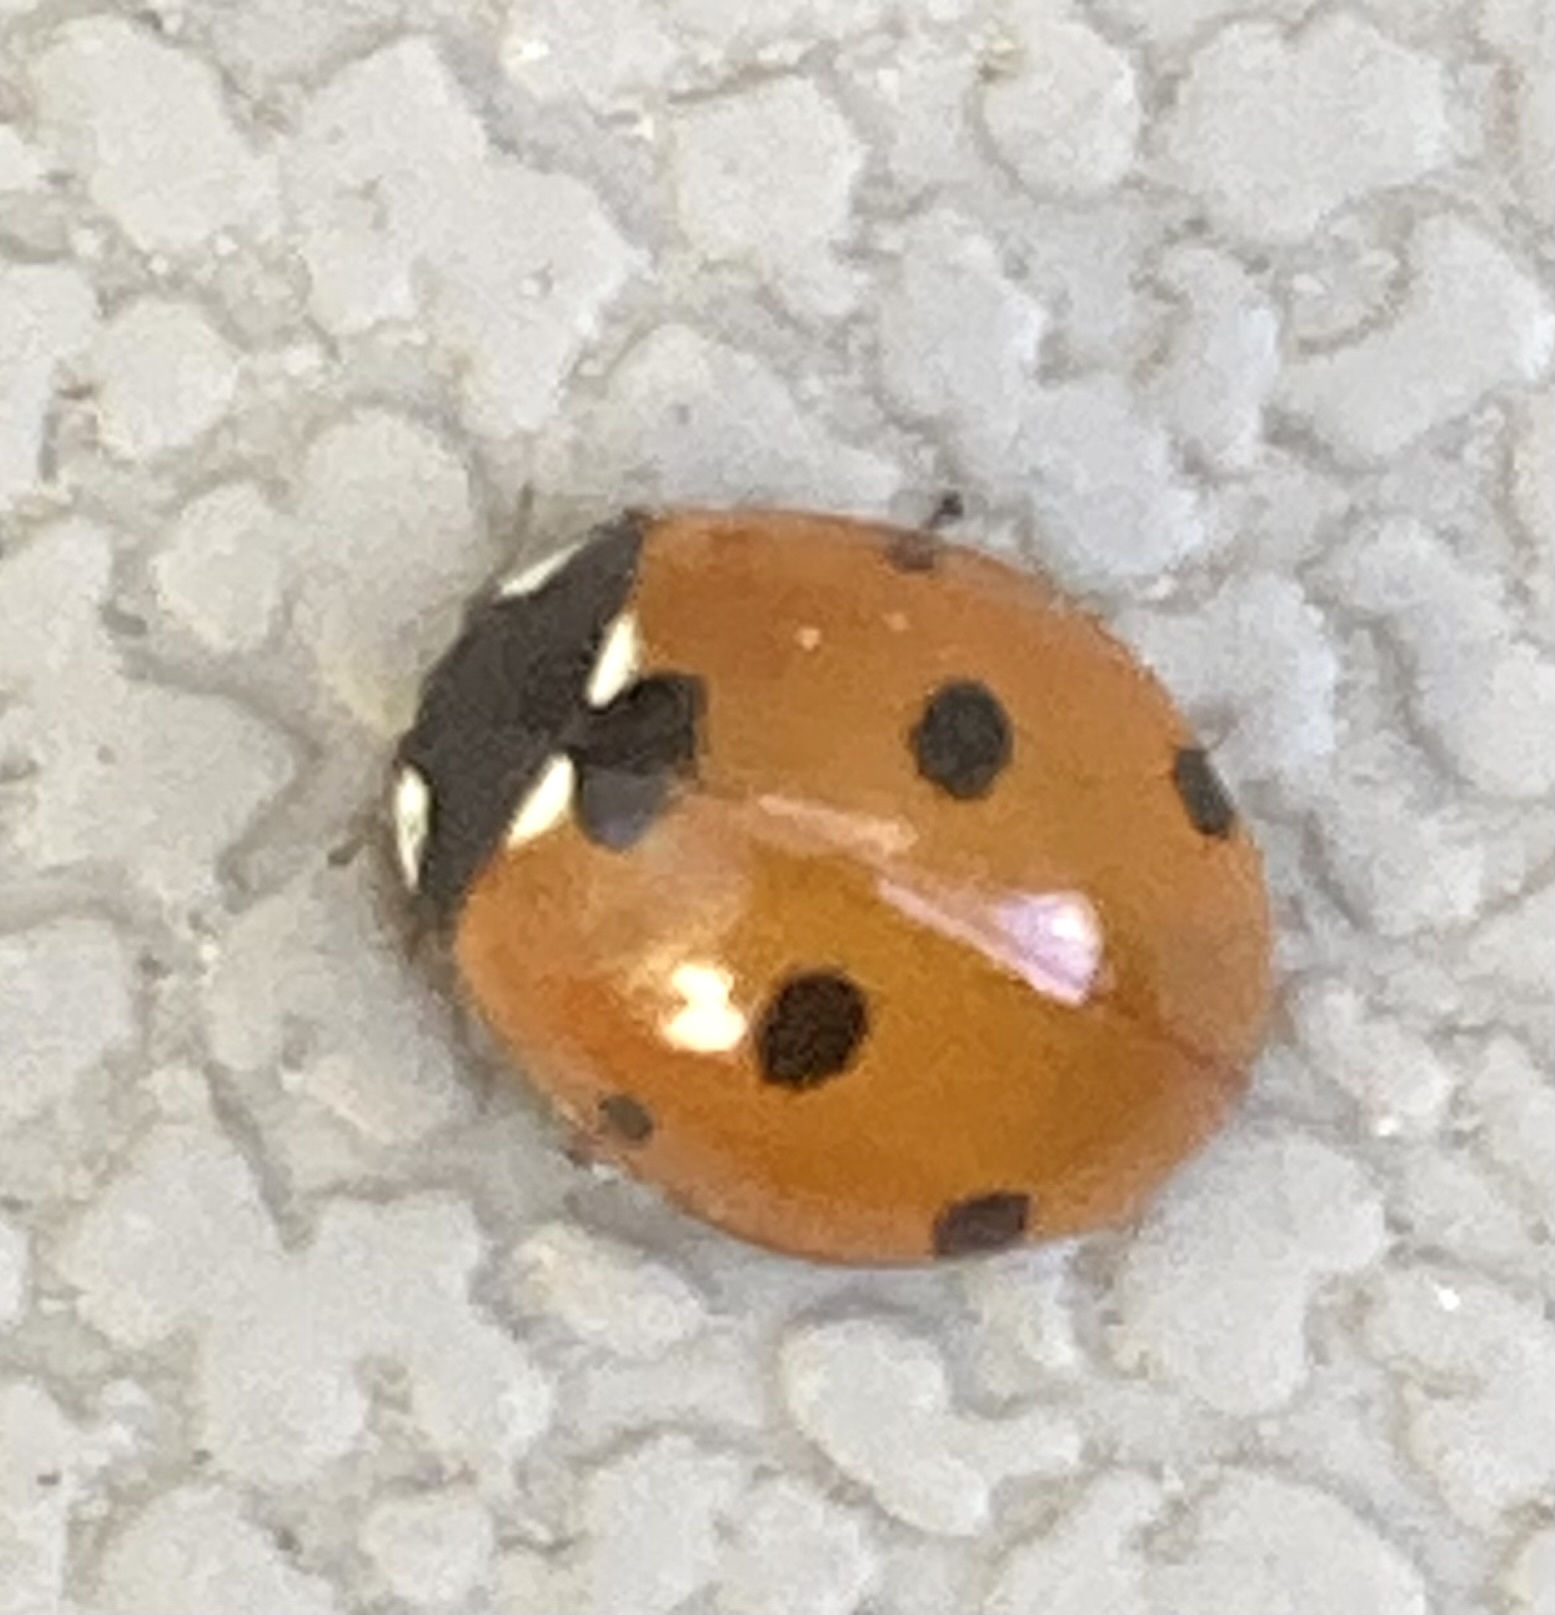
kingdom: Animalia
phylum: Arthropoda
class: Insecta
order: Coleoptera
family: Coccinellidae
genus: Coccinella
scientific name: Coccinella septempunctata
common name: Sevenspotted lady beetle
